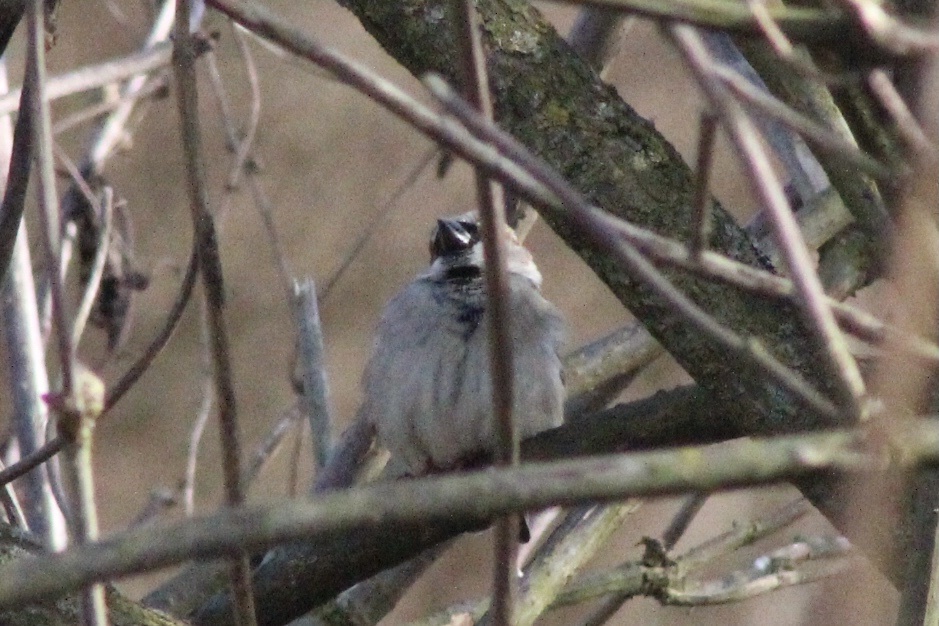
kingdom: Animalia
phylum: Chordata
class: Aves
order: Passeriformes
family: Passeridae
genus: Passer
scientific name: Passer domesticus
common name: House sparrow
